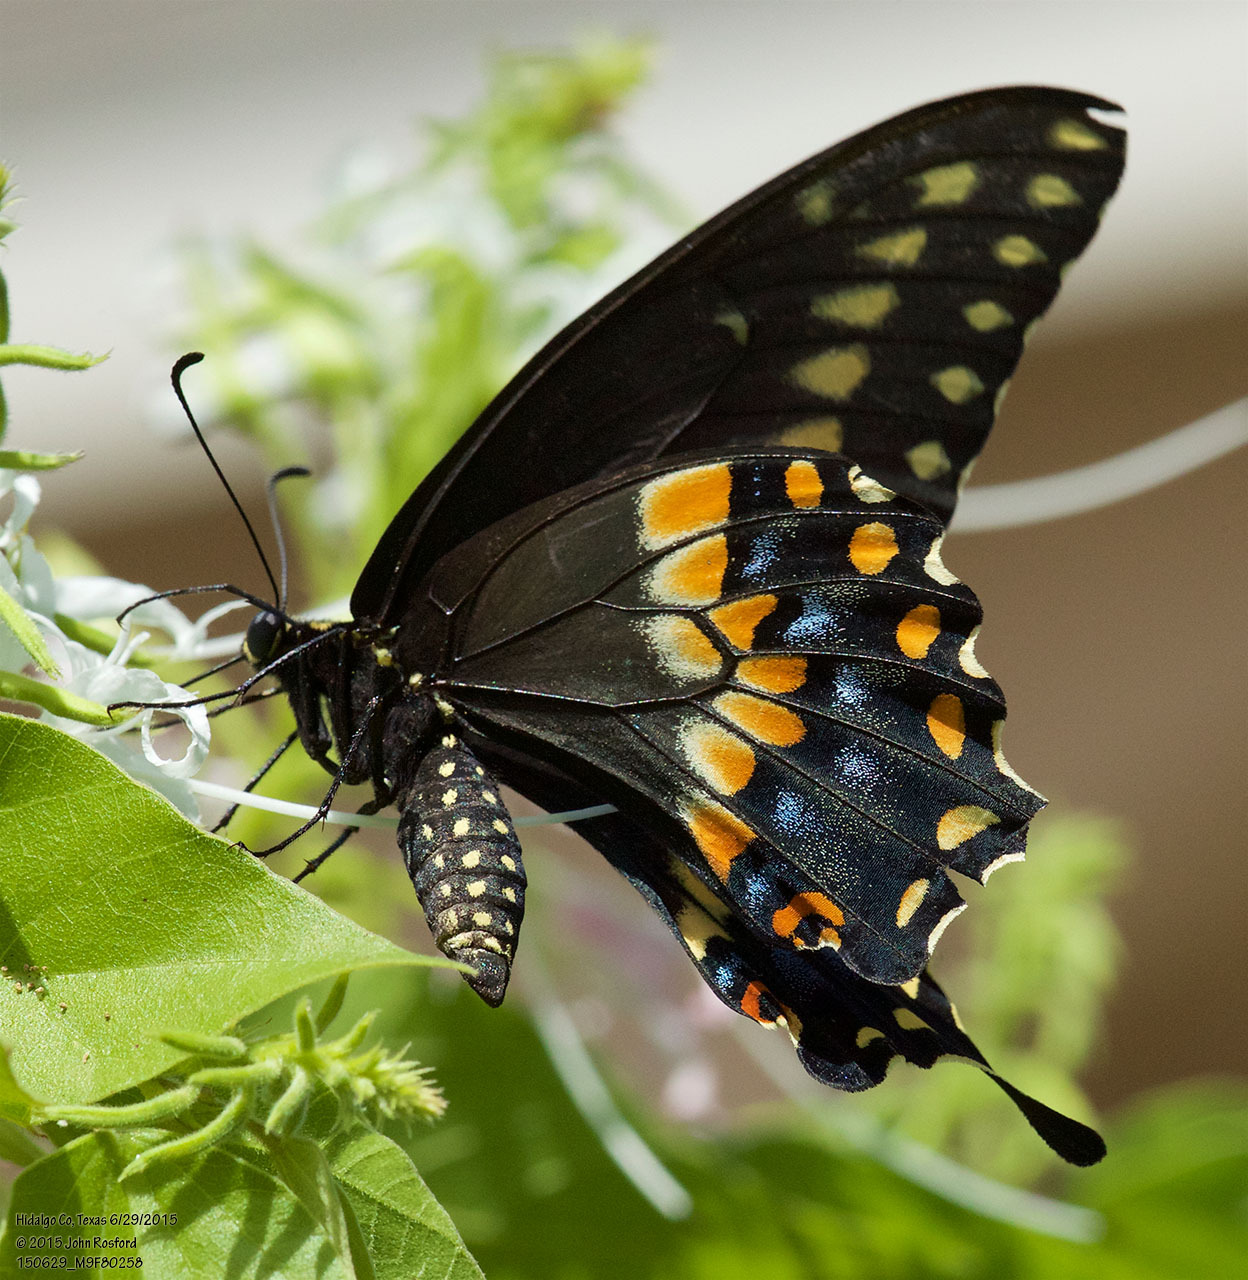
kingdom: Animalia
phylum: Arthropoda
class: Insecta
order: Lepidoptera
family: Papilionidae
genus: Papilio
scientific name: Papilio polyxenes
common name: Black swallowtail
